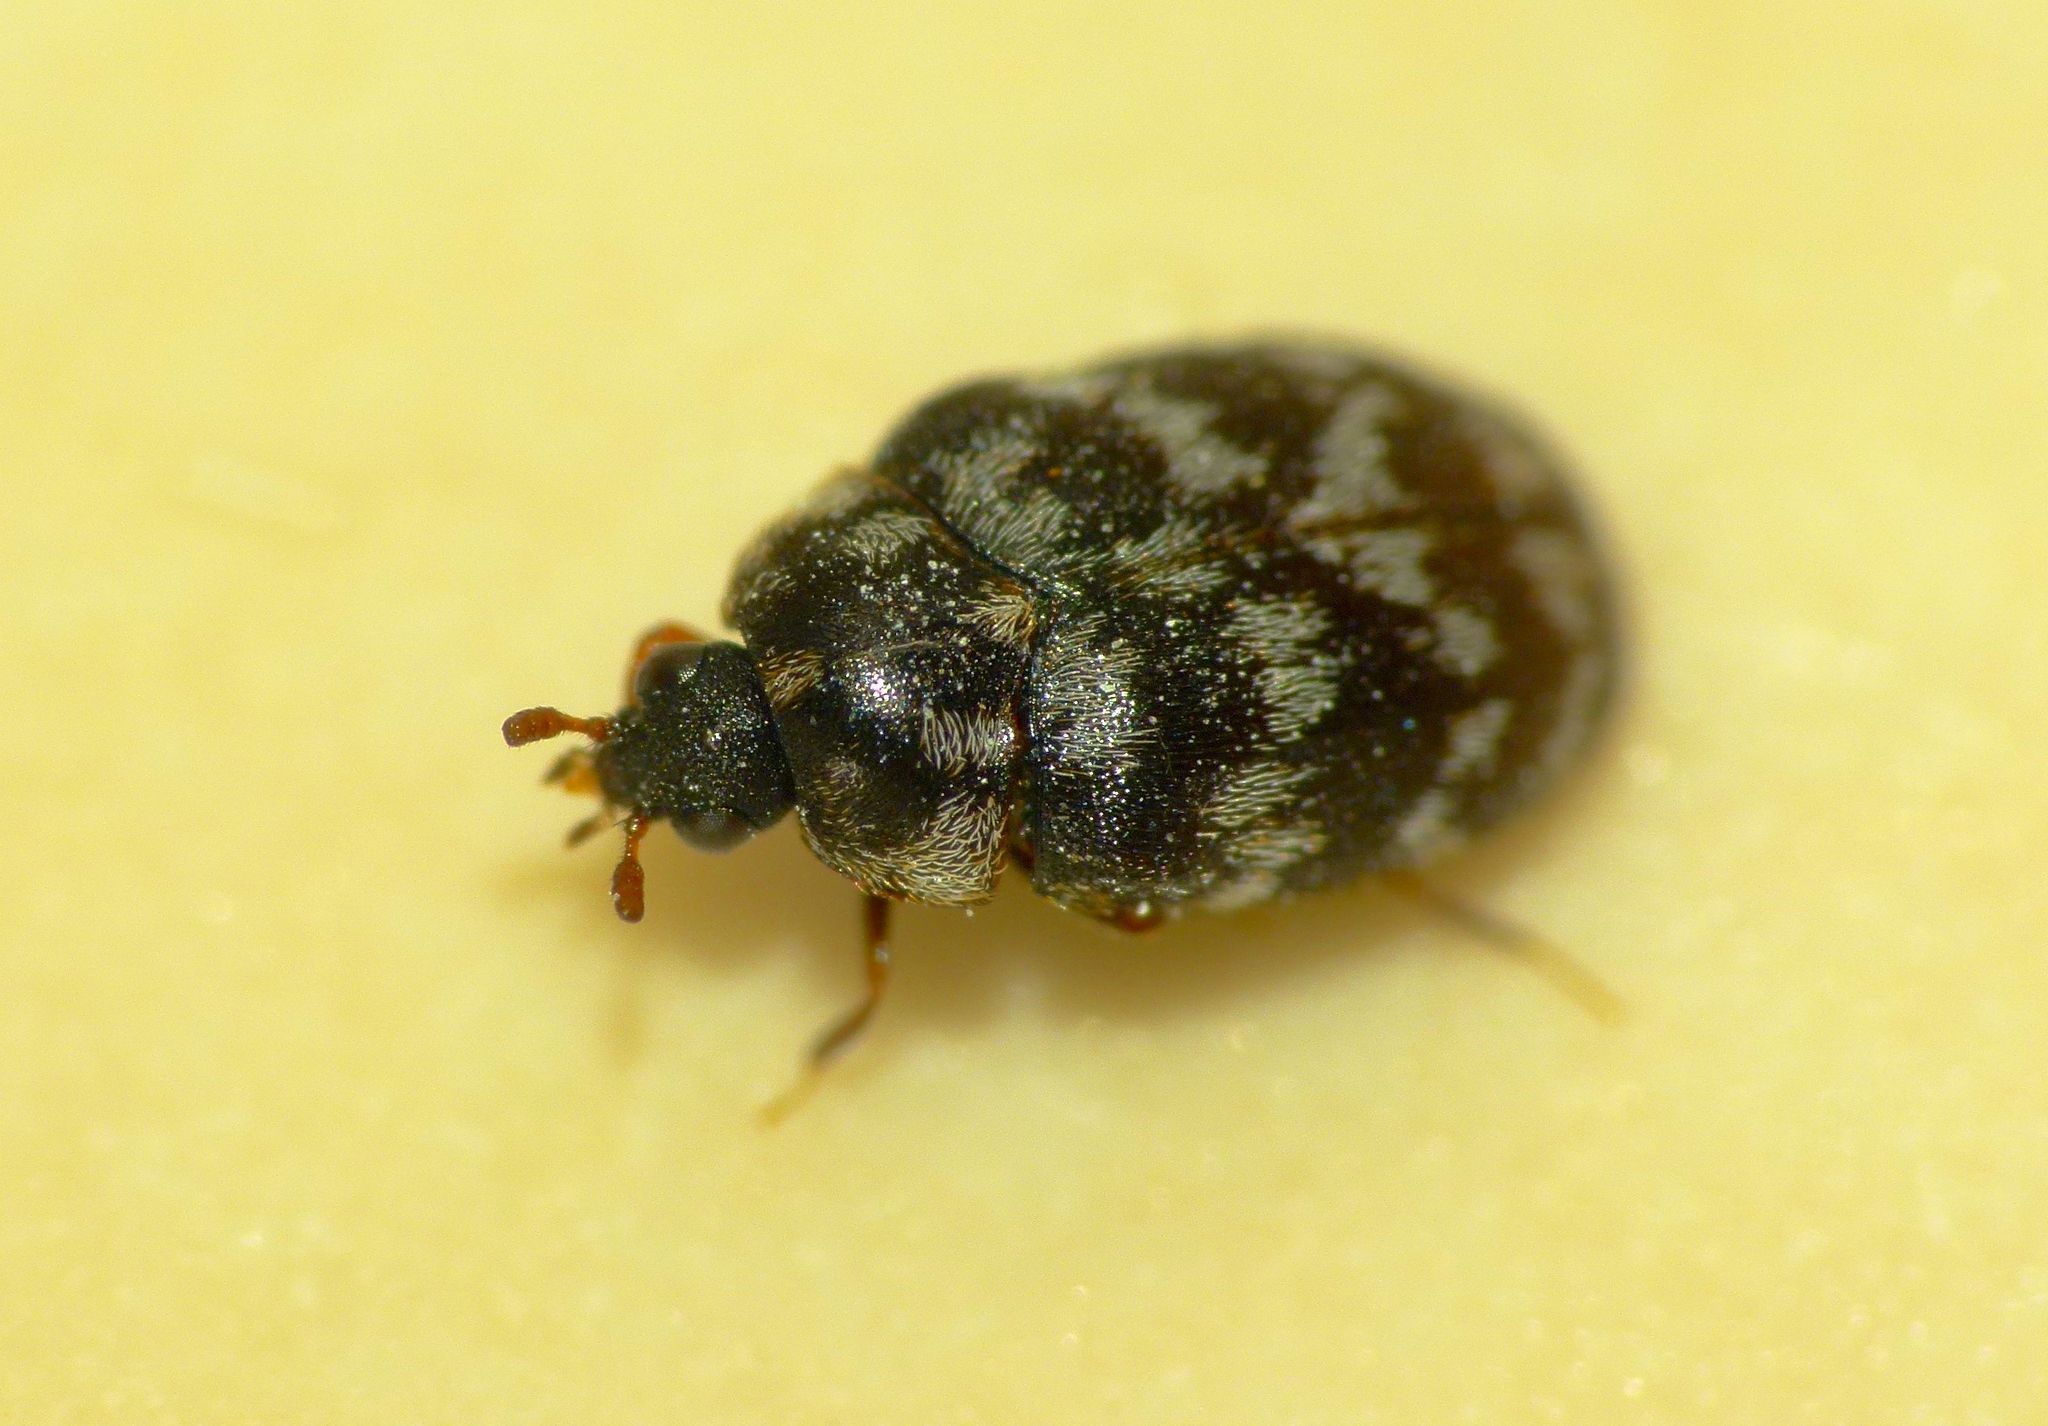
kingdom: Animalia
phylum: Arthropoda
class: Insecta
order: Coleoptera
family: Dermestidae
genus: Anthrenocerus
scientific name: Anthrenocerus australis
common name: Australian carpet beetle
